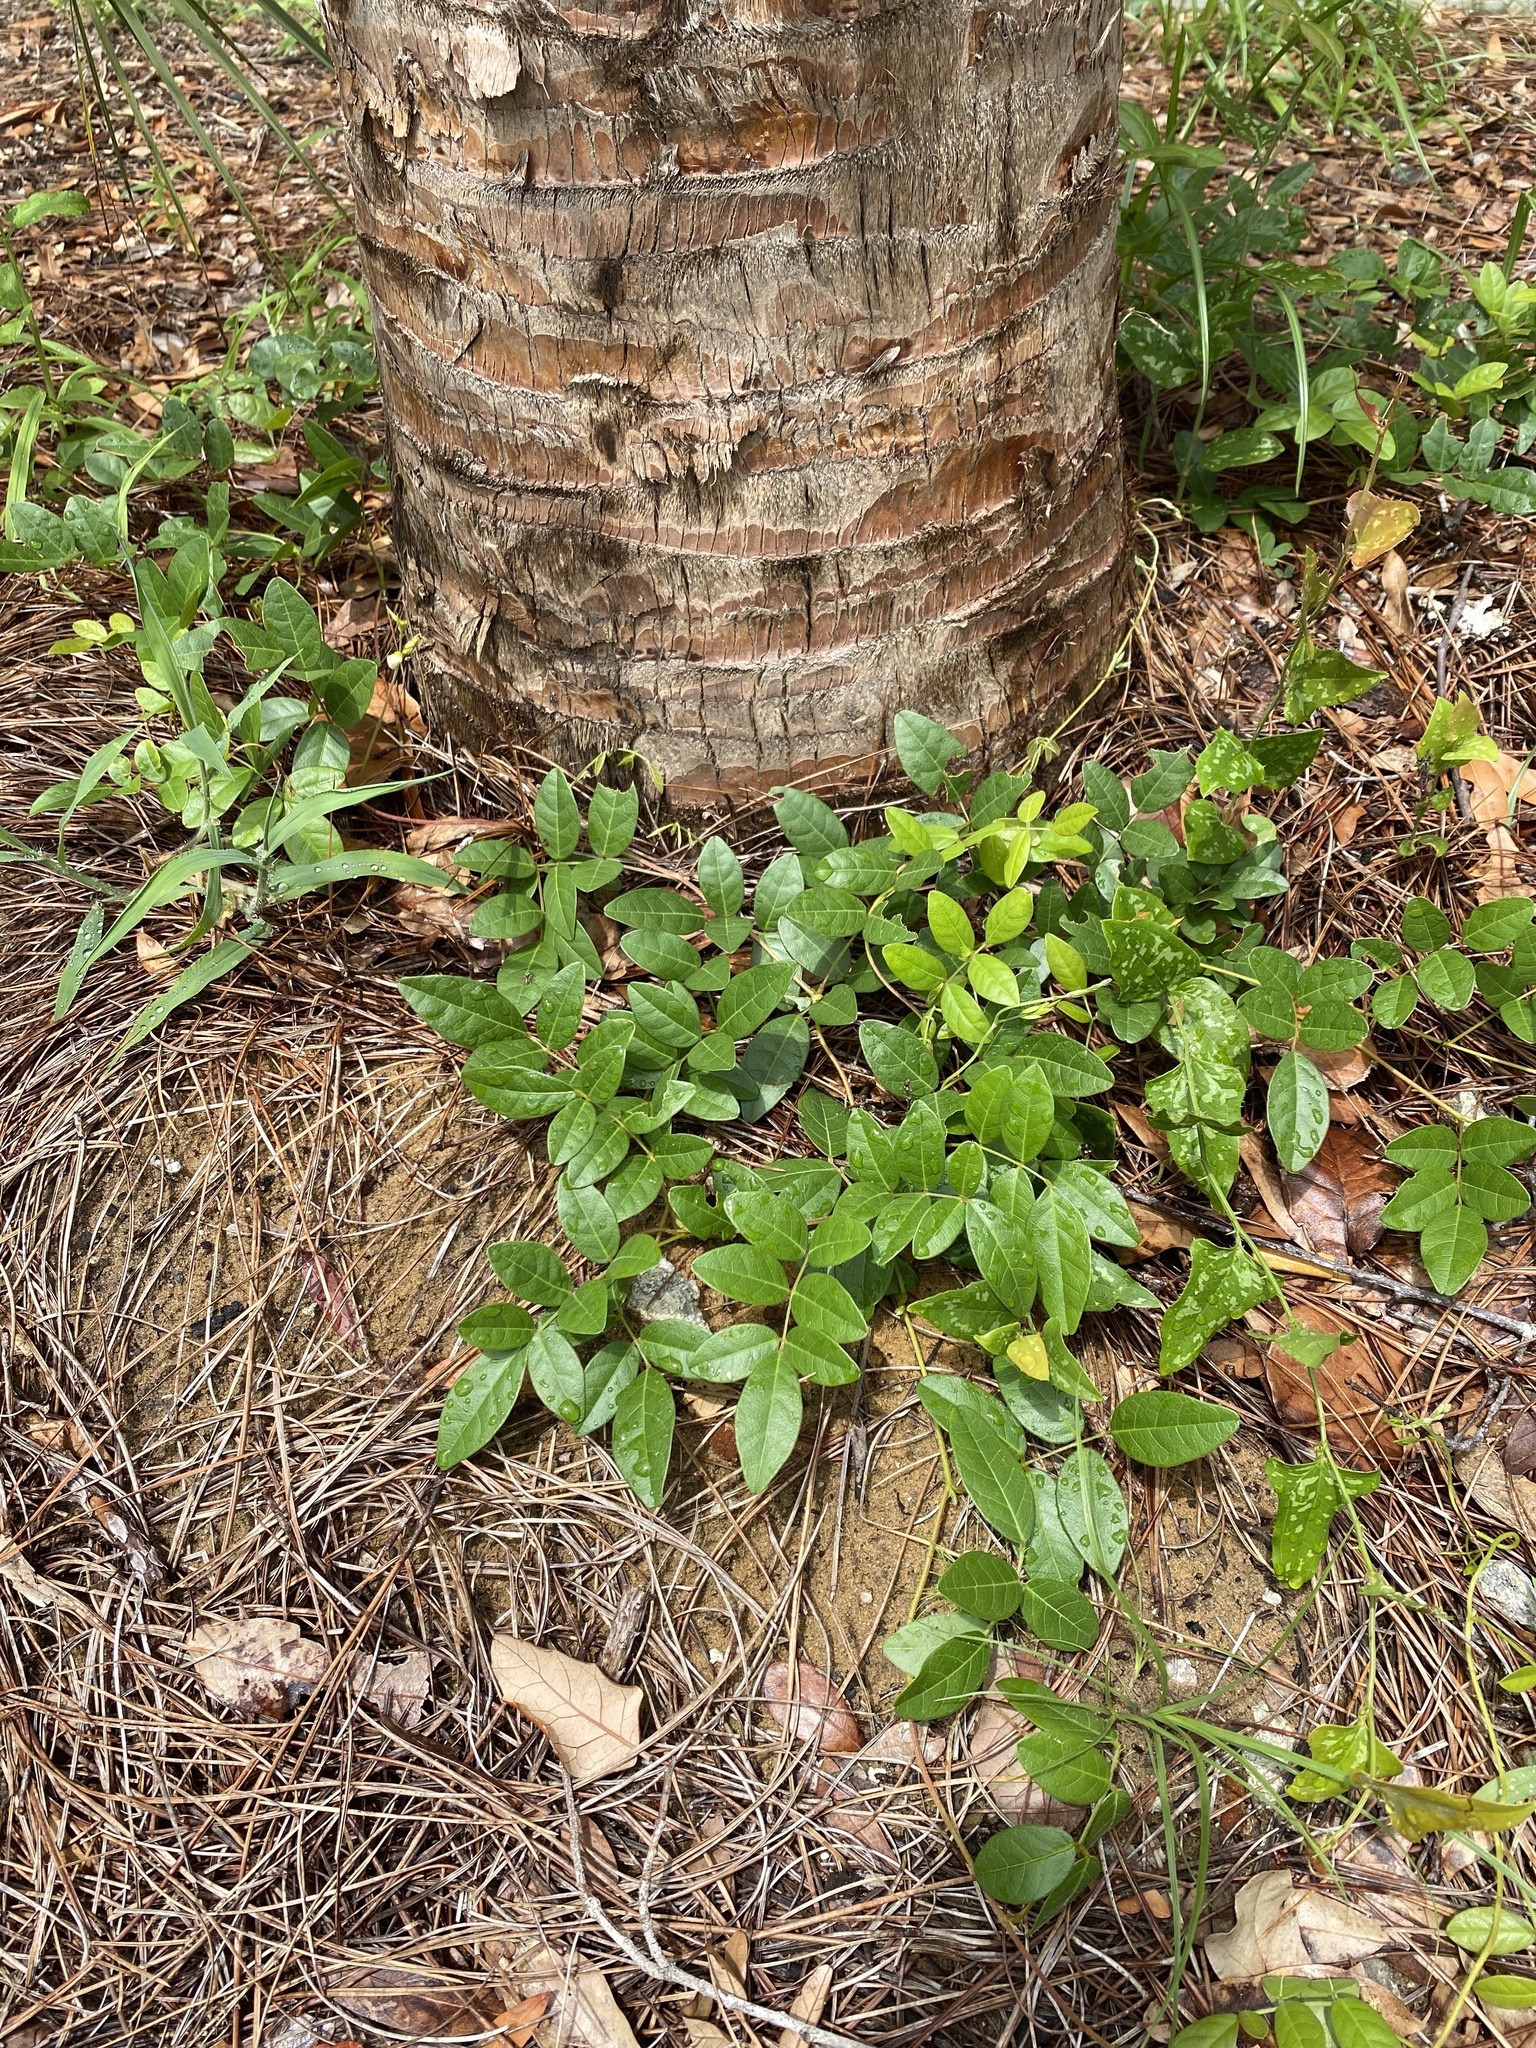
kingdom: Plantae
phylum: Tracheophyta
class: Magnoliopsida
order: Fabales
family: Fabaceae
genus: Galactia
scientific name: Galactia elliottii
